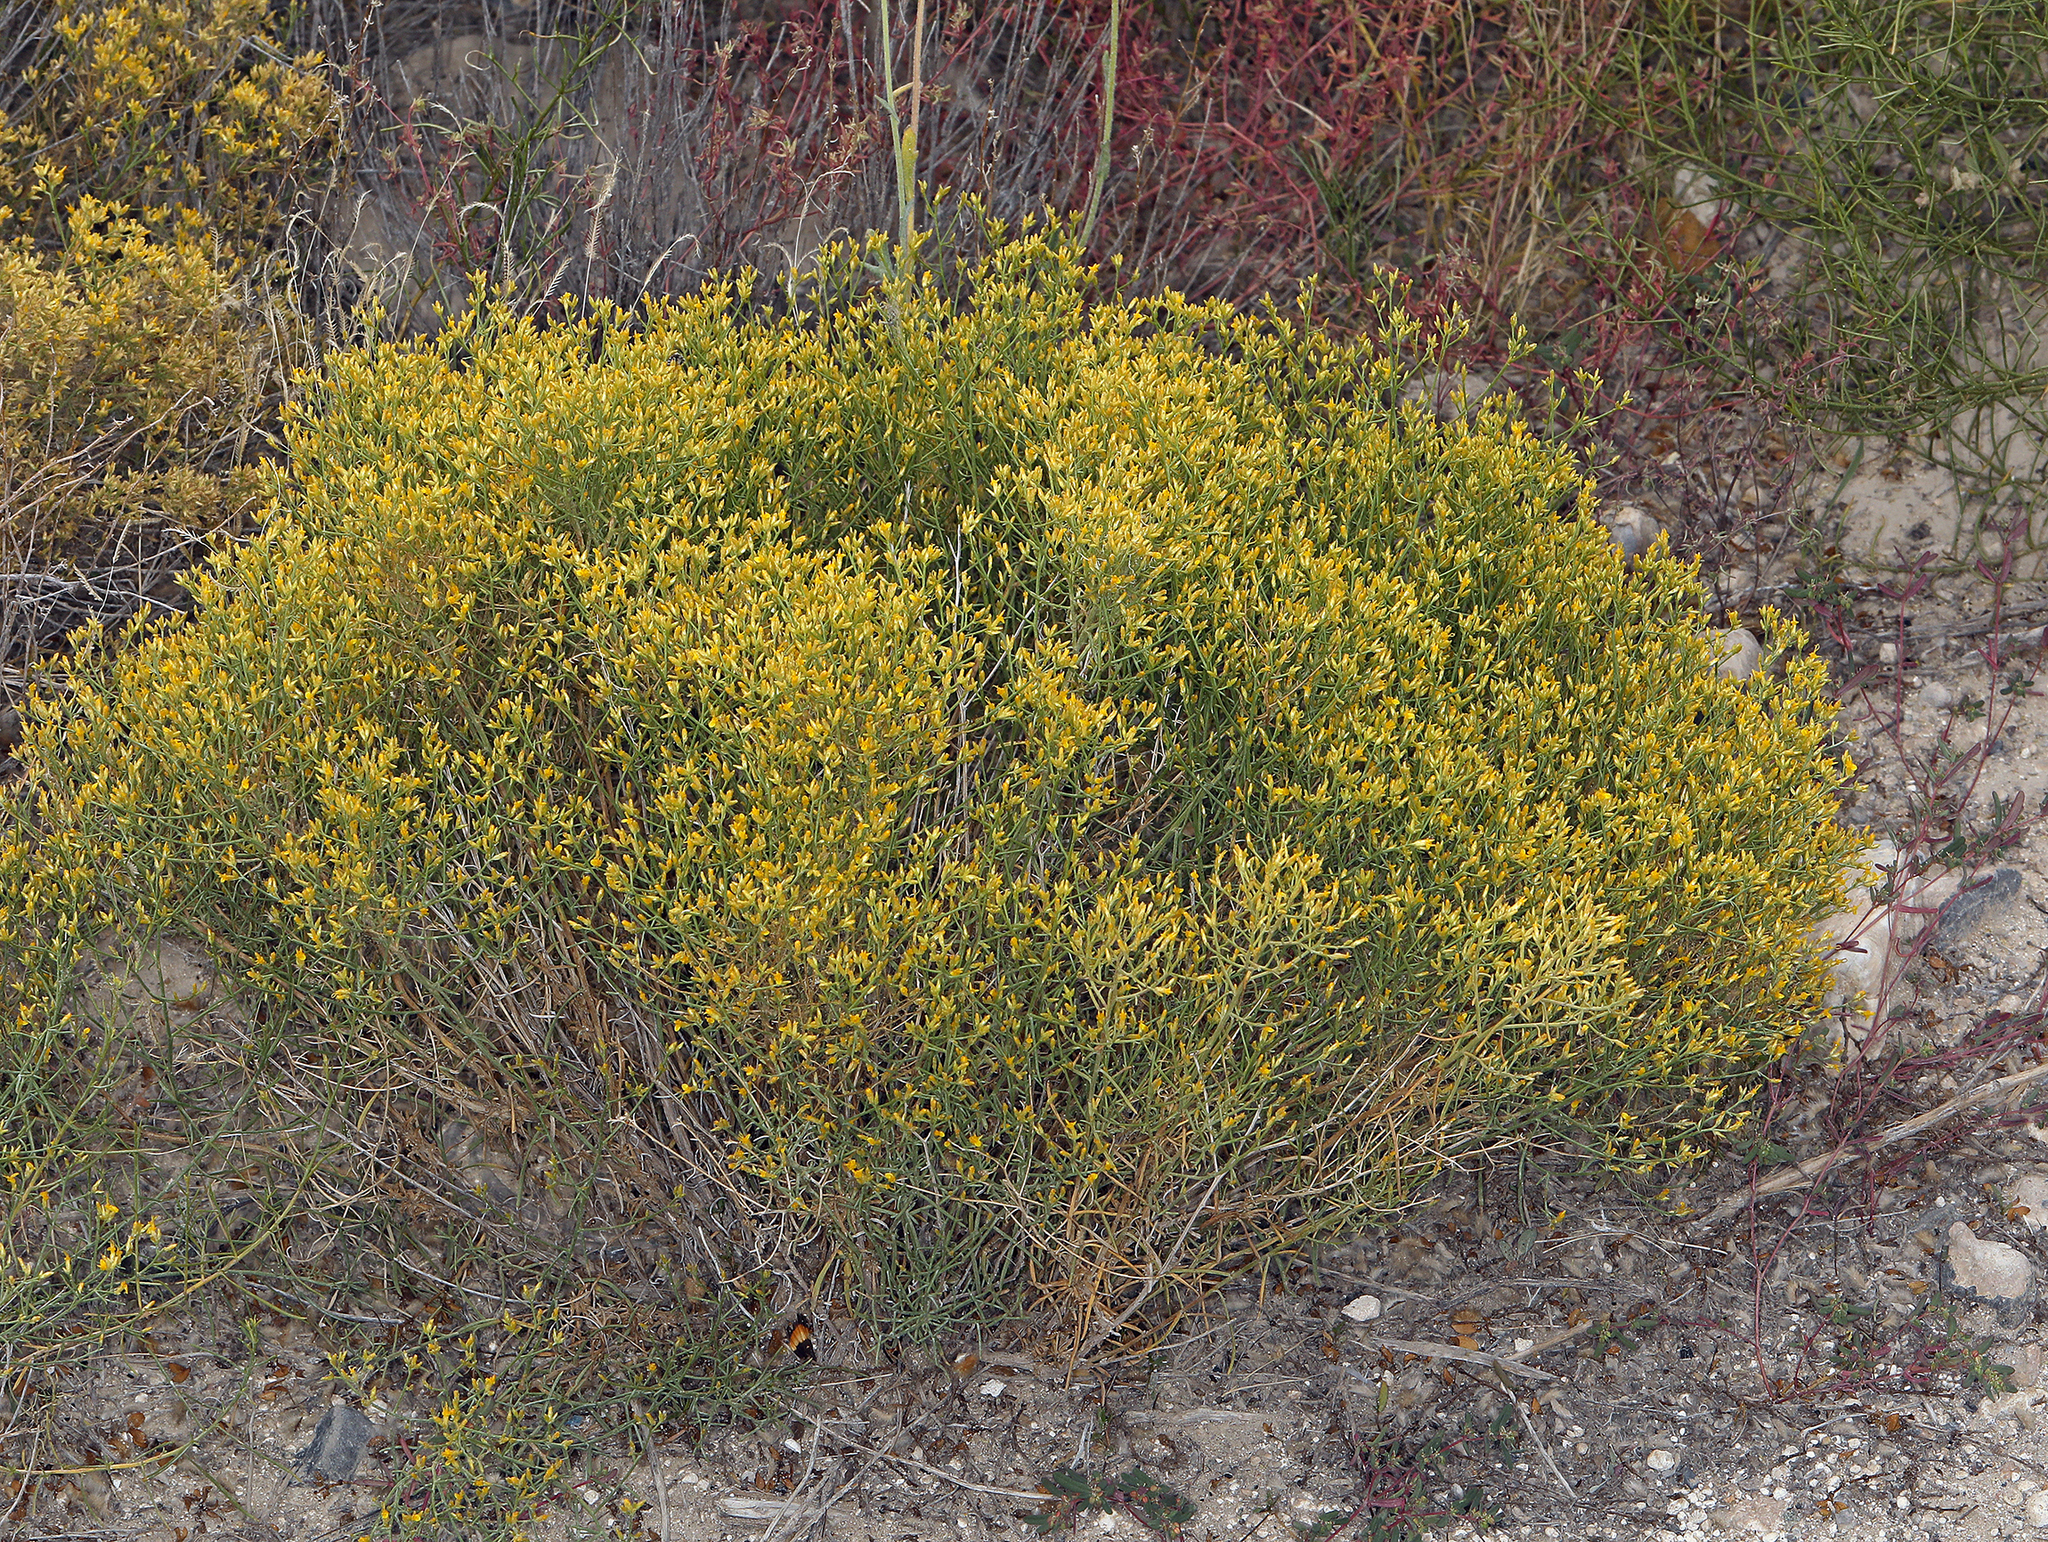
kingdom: Plantae
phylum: Tracheophyta
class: Magnoliopsida
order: Asterales
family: Asteraceae
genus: Gutierrezia
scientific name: Gutierrezia microcephala
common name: Thread snakeweed
